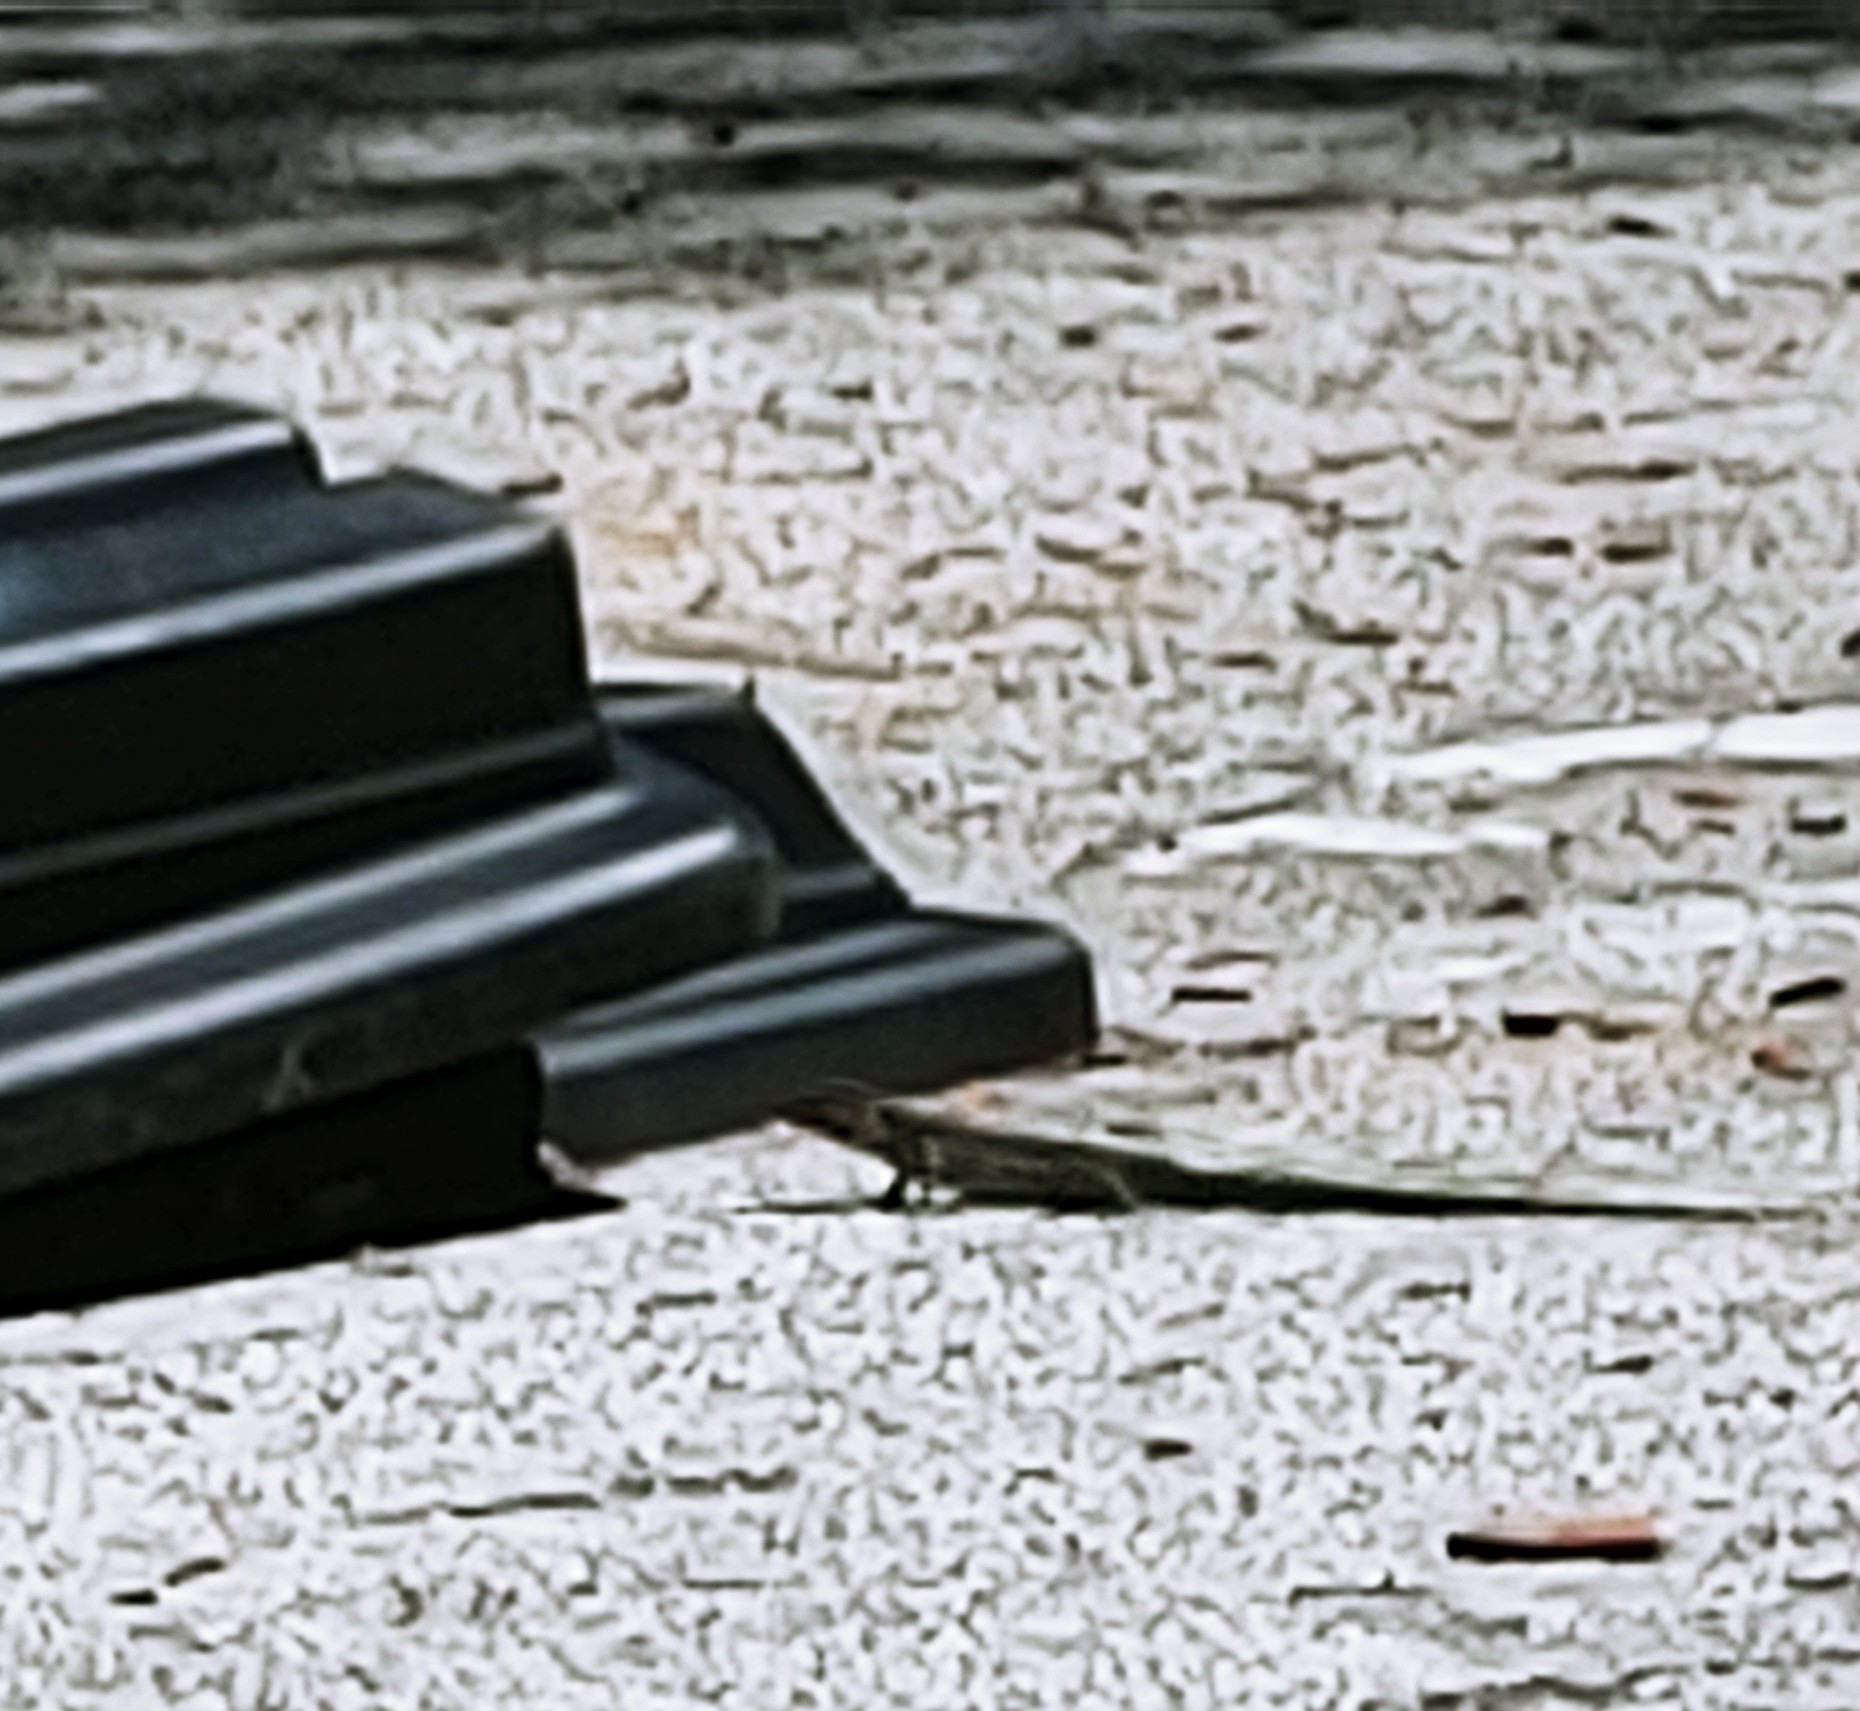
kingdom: Animalia
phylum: Chordata
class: Squamata
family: Teiidae
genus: Ameiva
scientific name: Ameiva ameiva
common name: Giant ameiva
